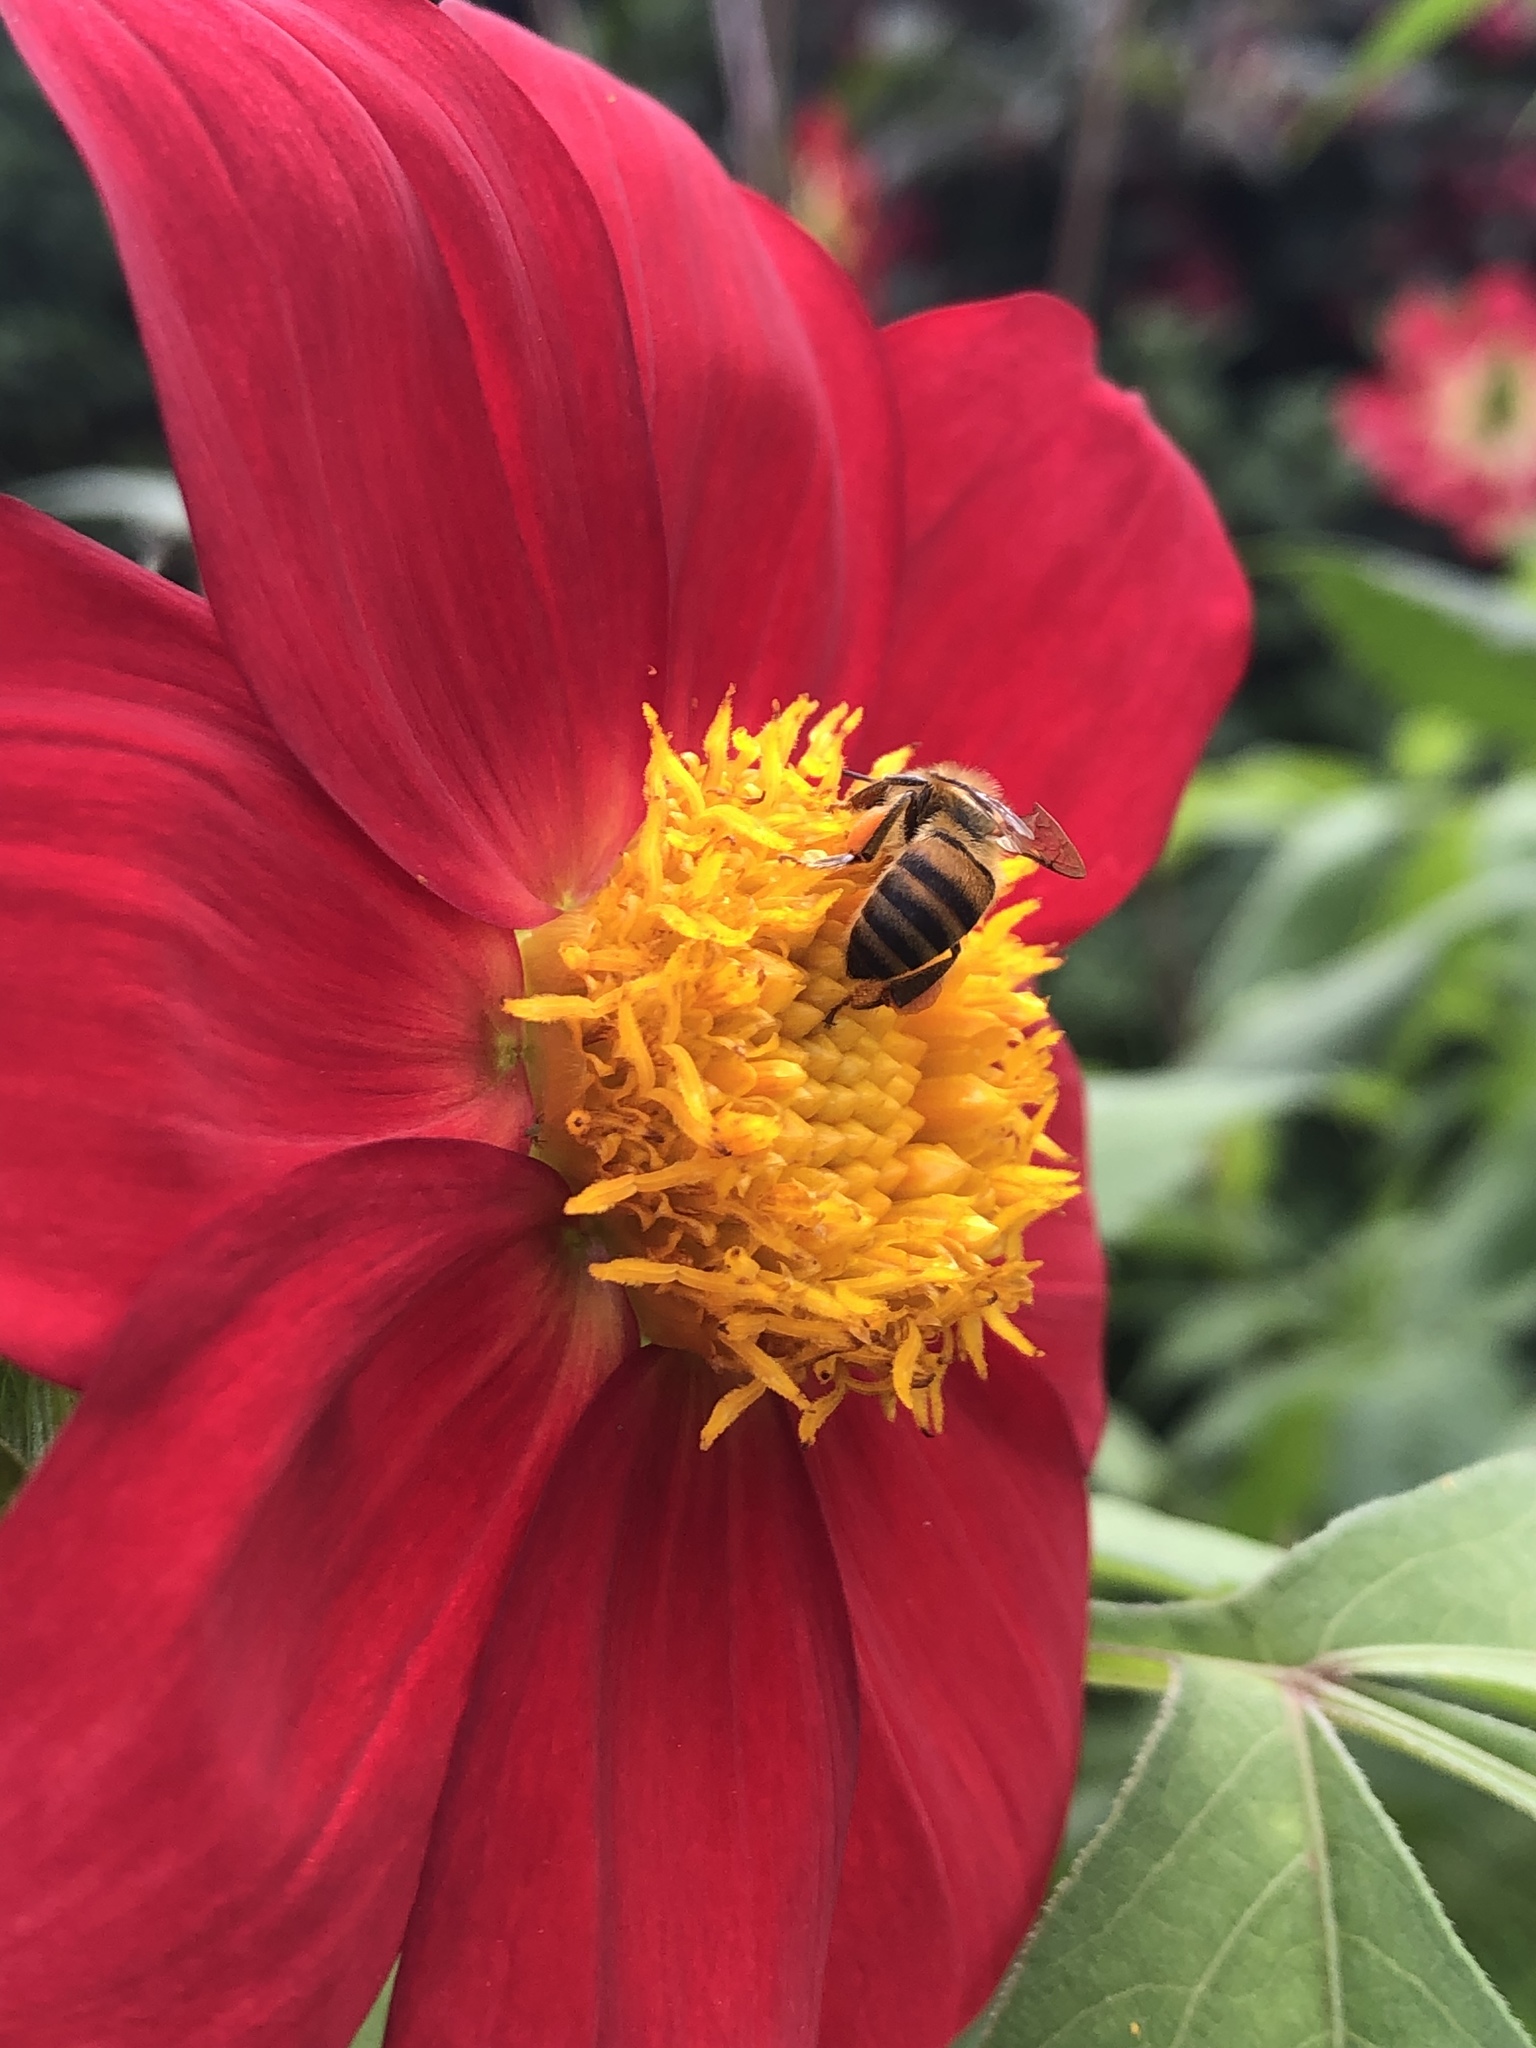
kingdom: Animalia
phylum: Arthropoda
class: Insecta
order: Hymenoptera
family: Apidae
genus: Apis
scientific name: Apis mellifera
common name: Honey bee
